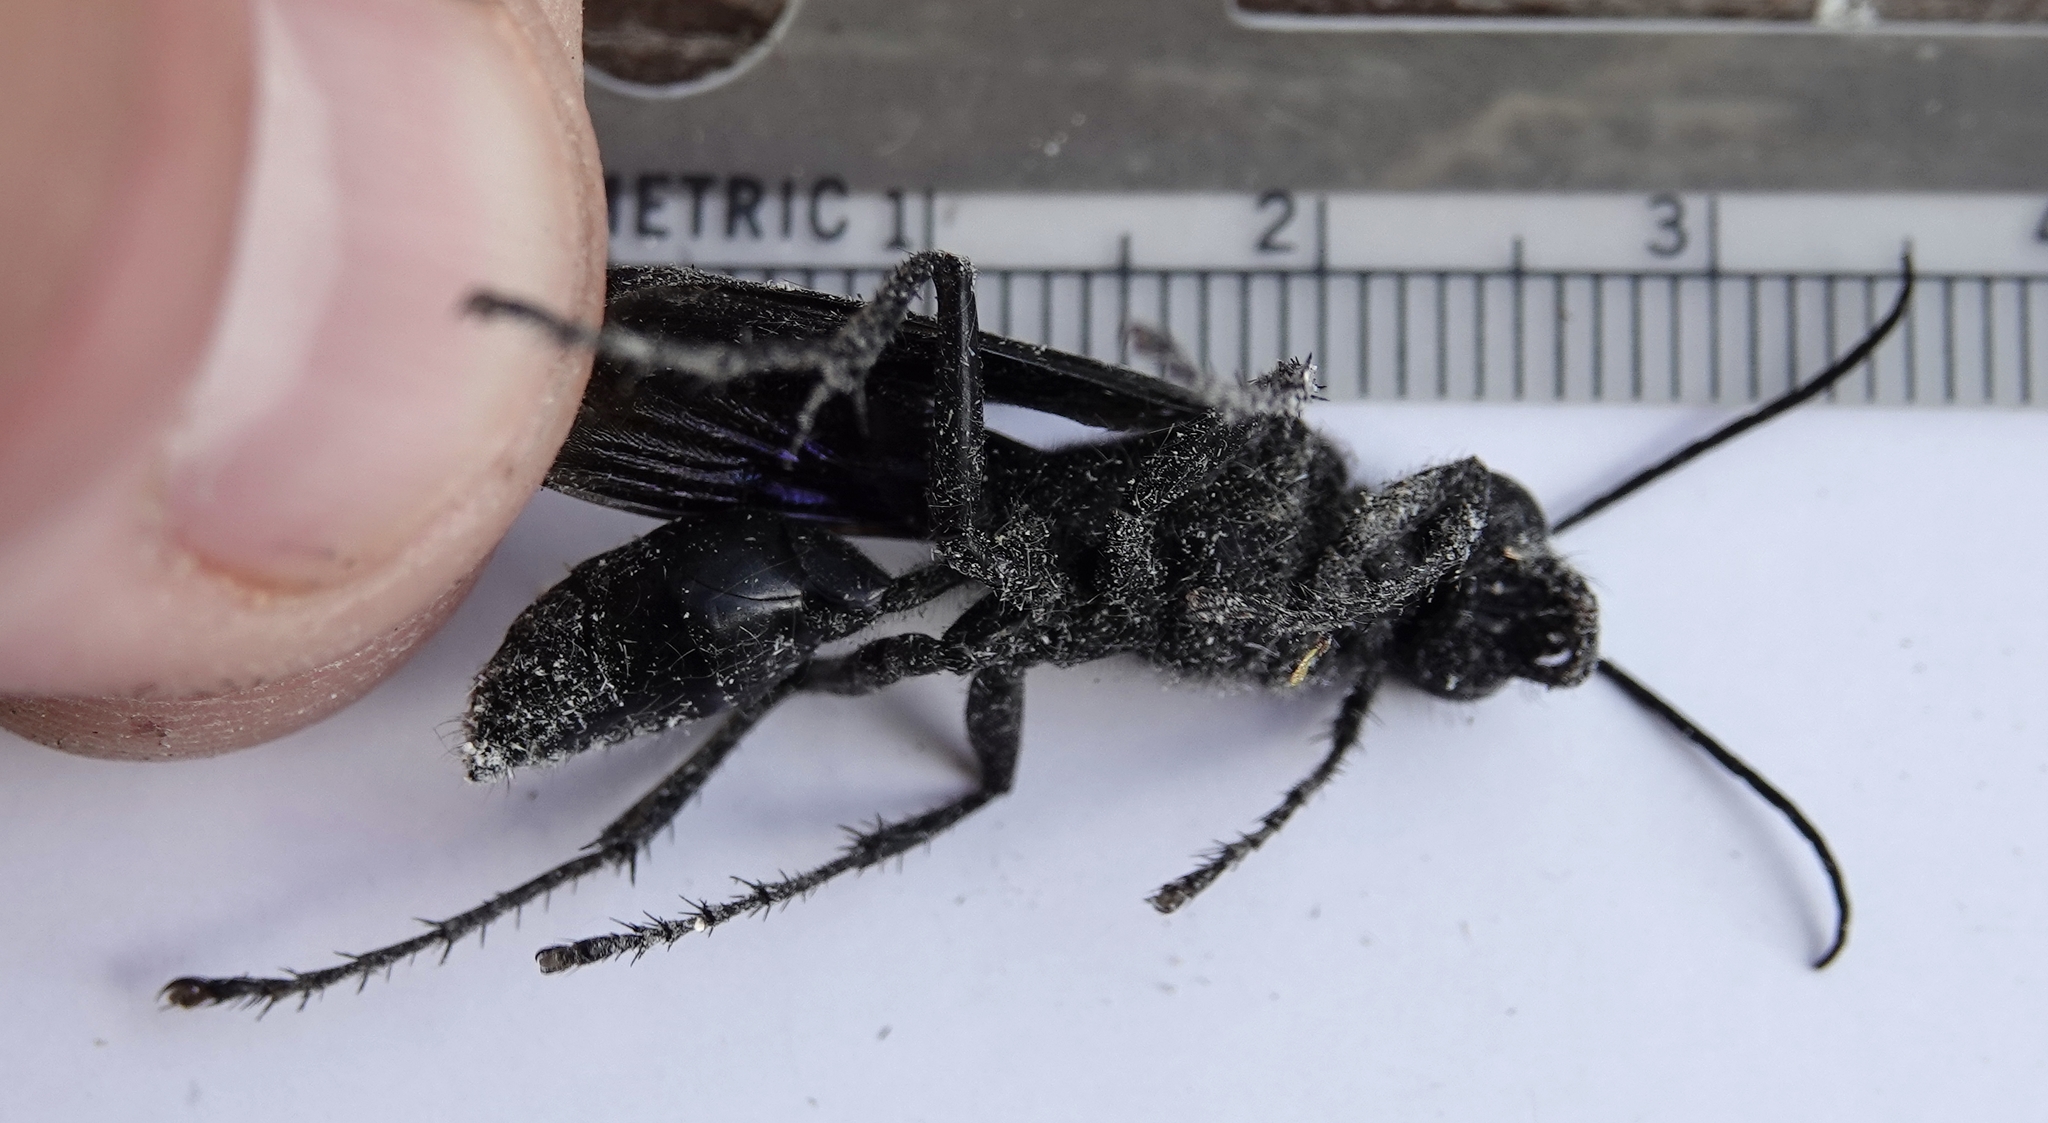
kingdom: Animalia
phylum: Arthropoda
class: Insecta
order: Hymenoptera
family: Sphecidae
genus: Sphex
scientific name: Sphex pensylvanicus
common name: Great black digger wasp
